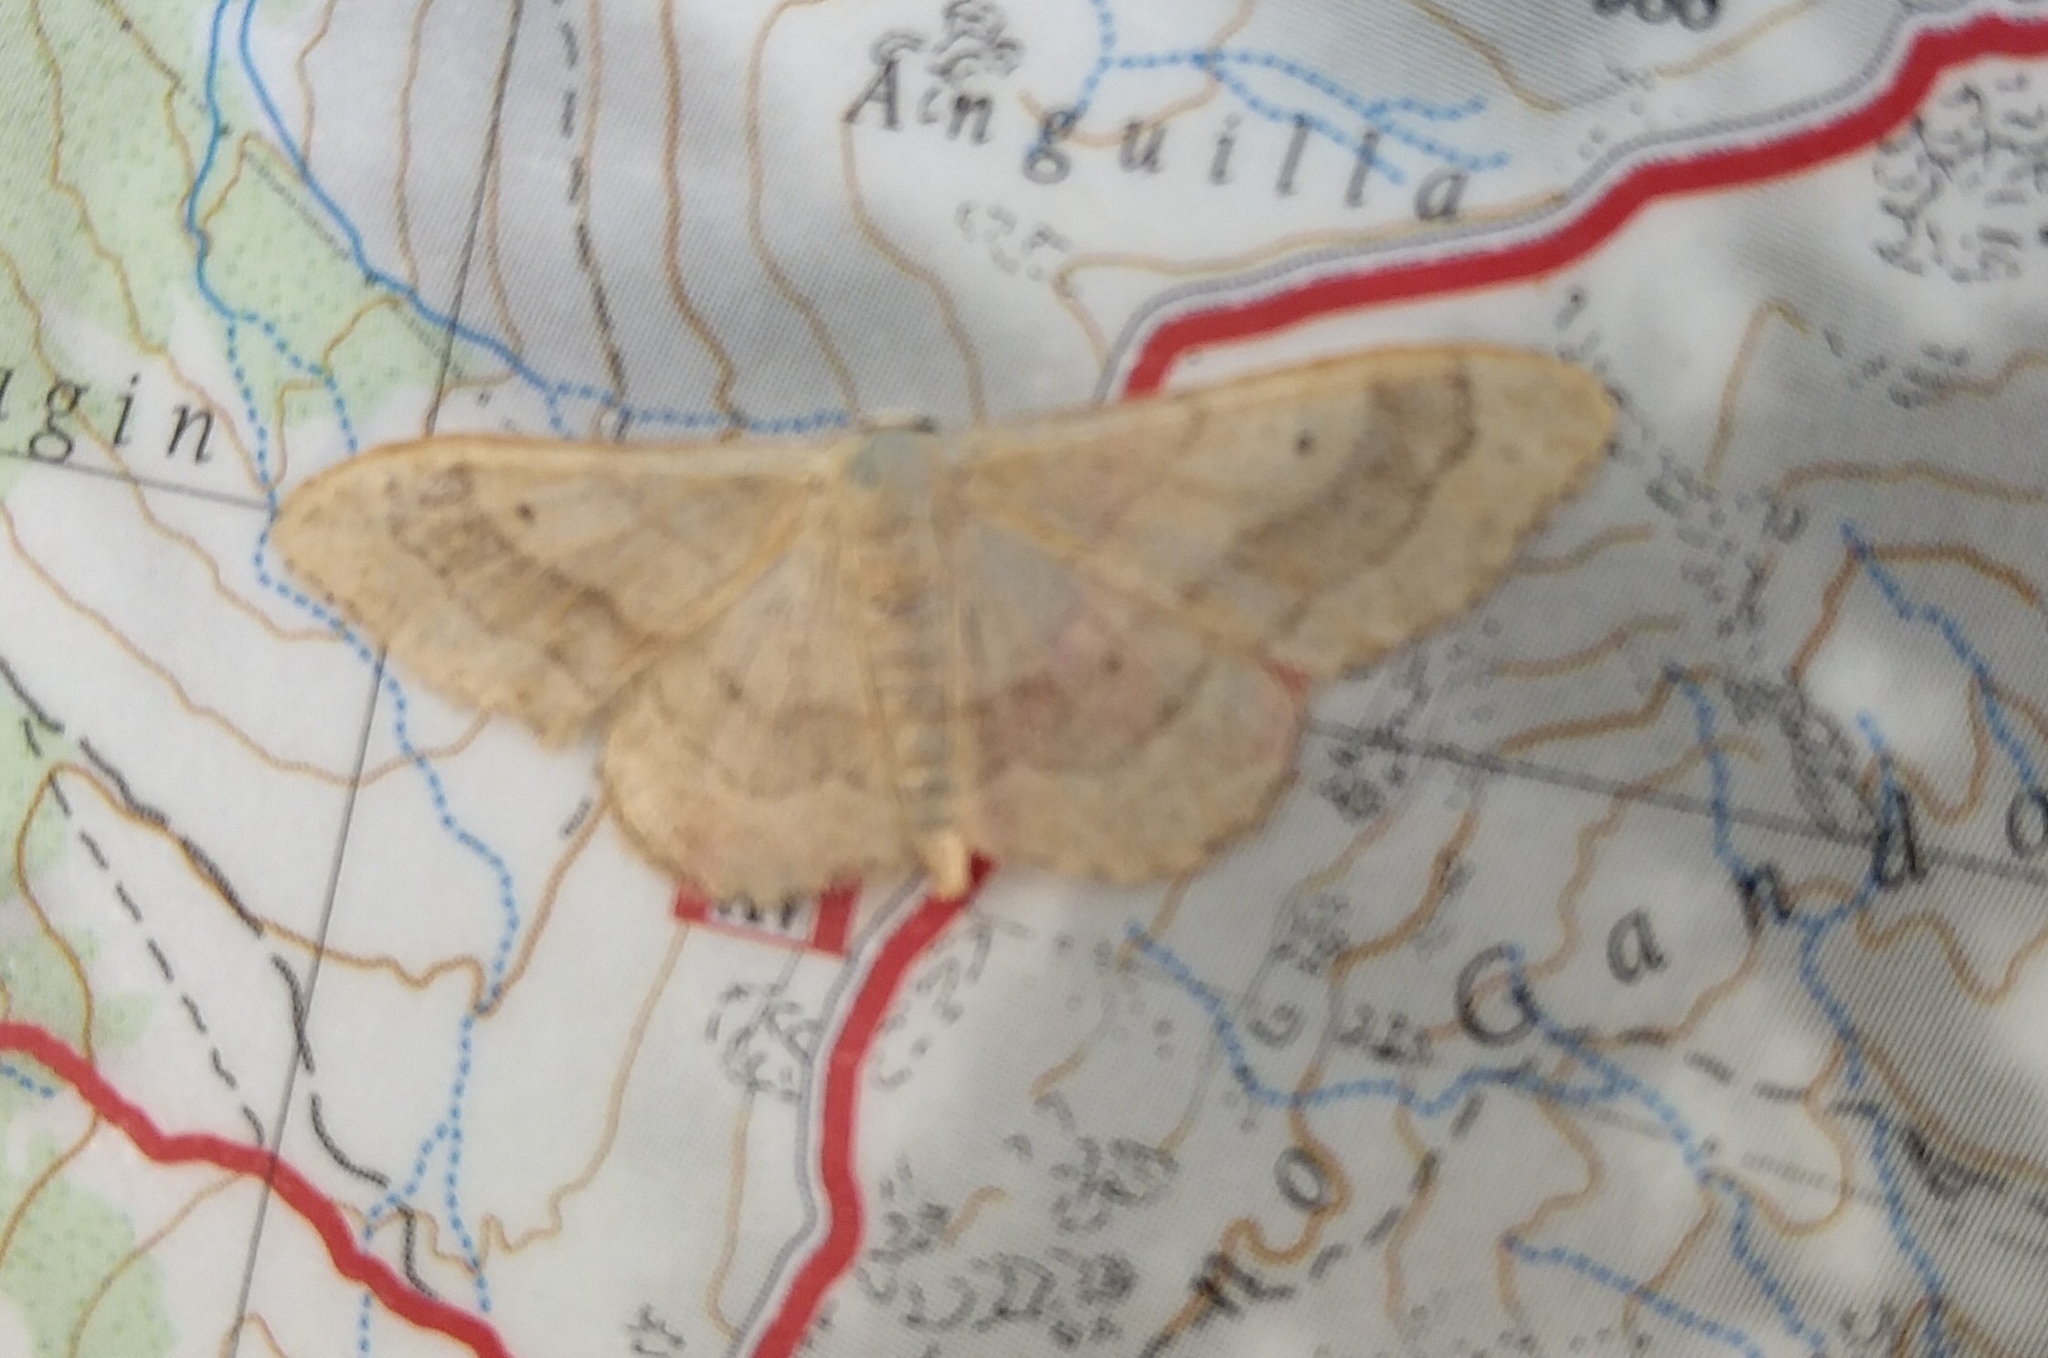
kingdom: Animalia
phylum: Arthropoda
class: Insecta
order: Lepidoptera
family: Geometridae
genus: Idaea
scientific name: Idaea aversata
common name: Riband wave
